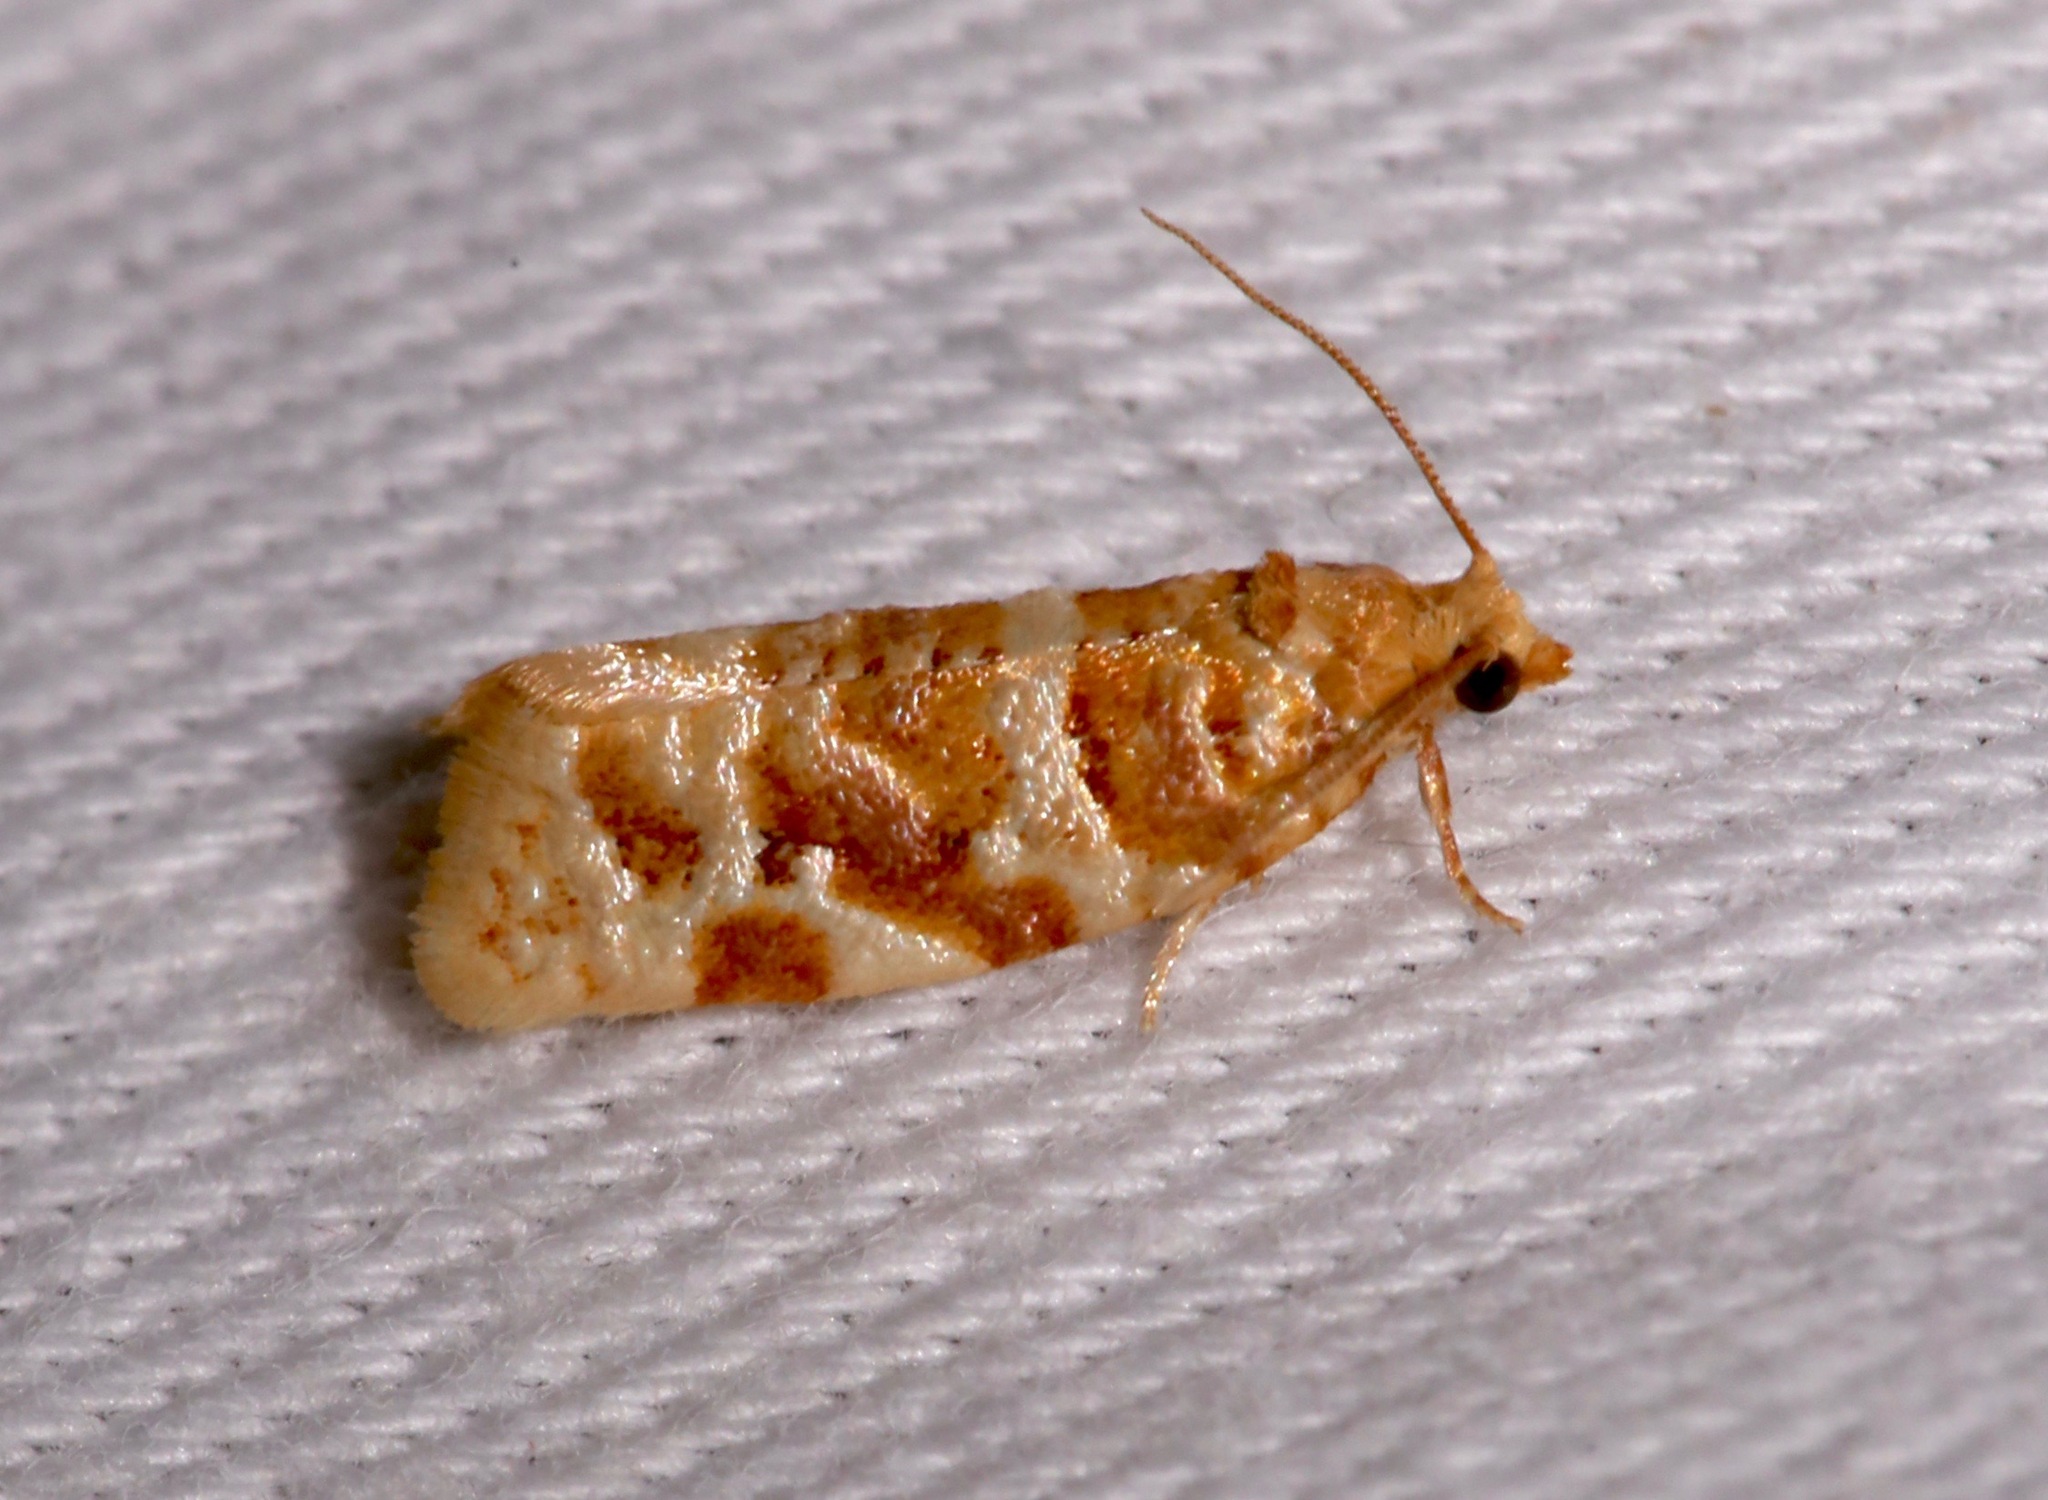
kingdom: Animalia
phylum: Arthropoda
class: Insecta
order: Lepidoptera
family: Tortricidae
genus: Argyrotaenia
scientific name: Argyrotaenia paiuteana
